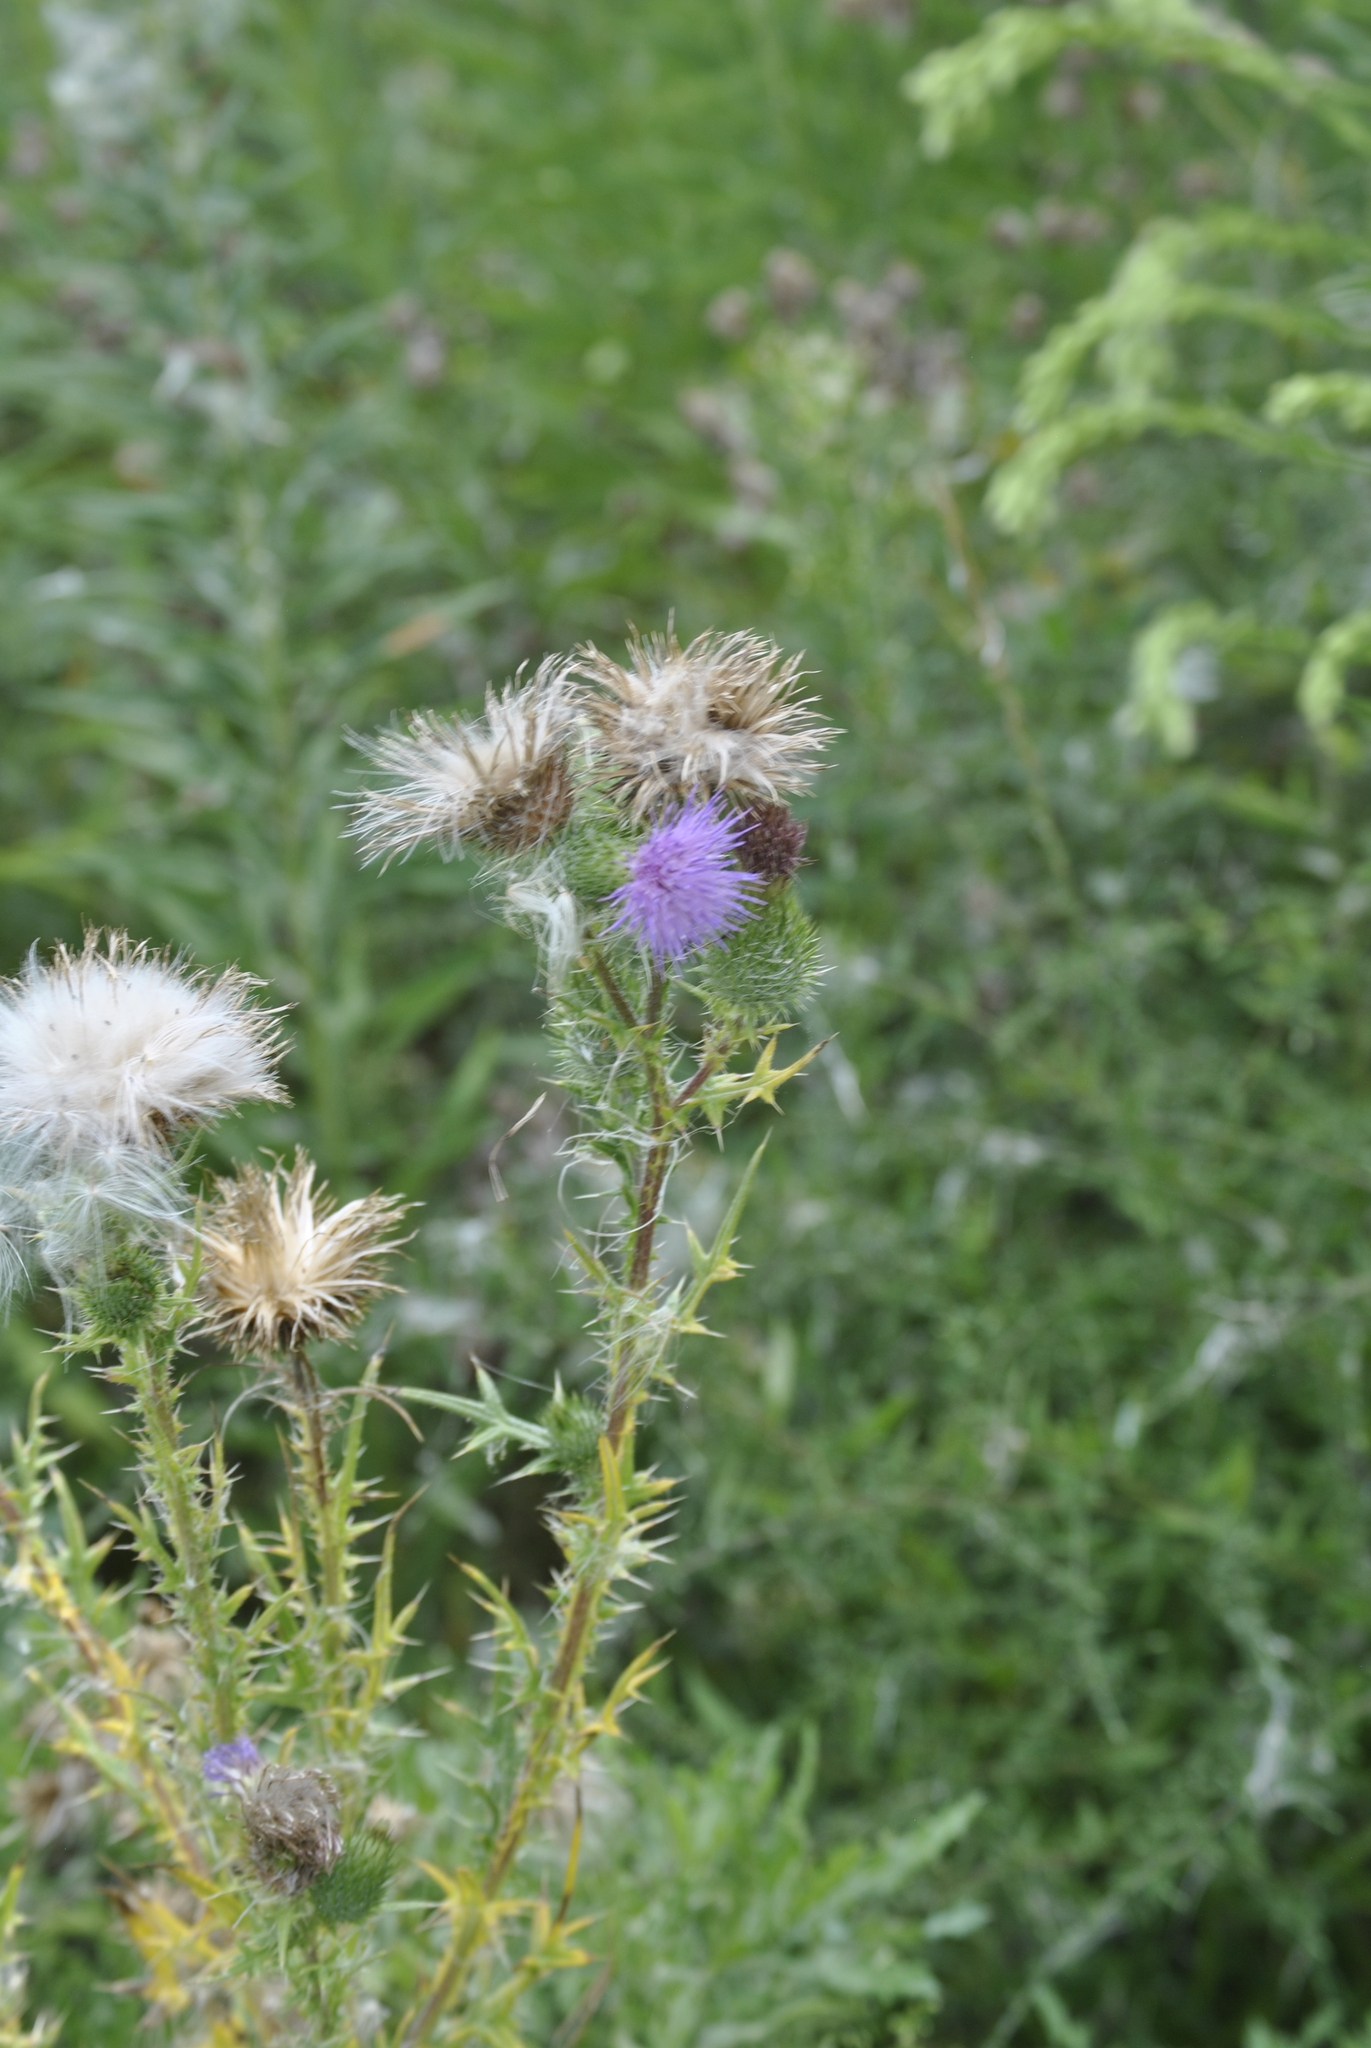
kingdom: Plantae
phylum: Tracheophyta
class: Magnoliopsida
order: Asterales
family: Asteraceae
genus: Cirsium
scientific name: Cirsium vulgare
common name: Bull thistle
